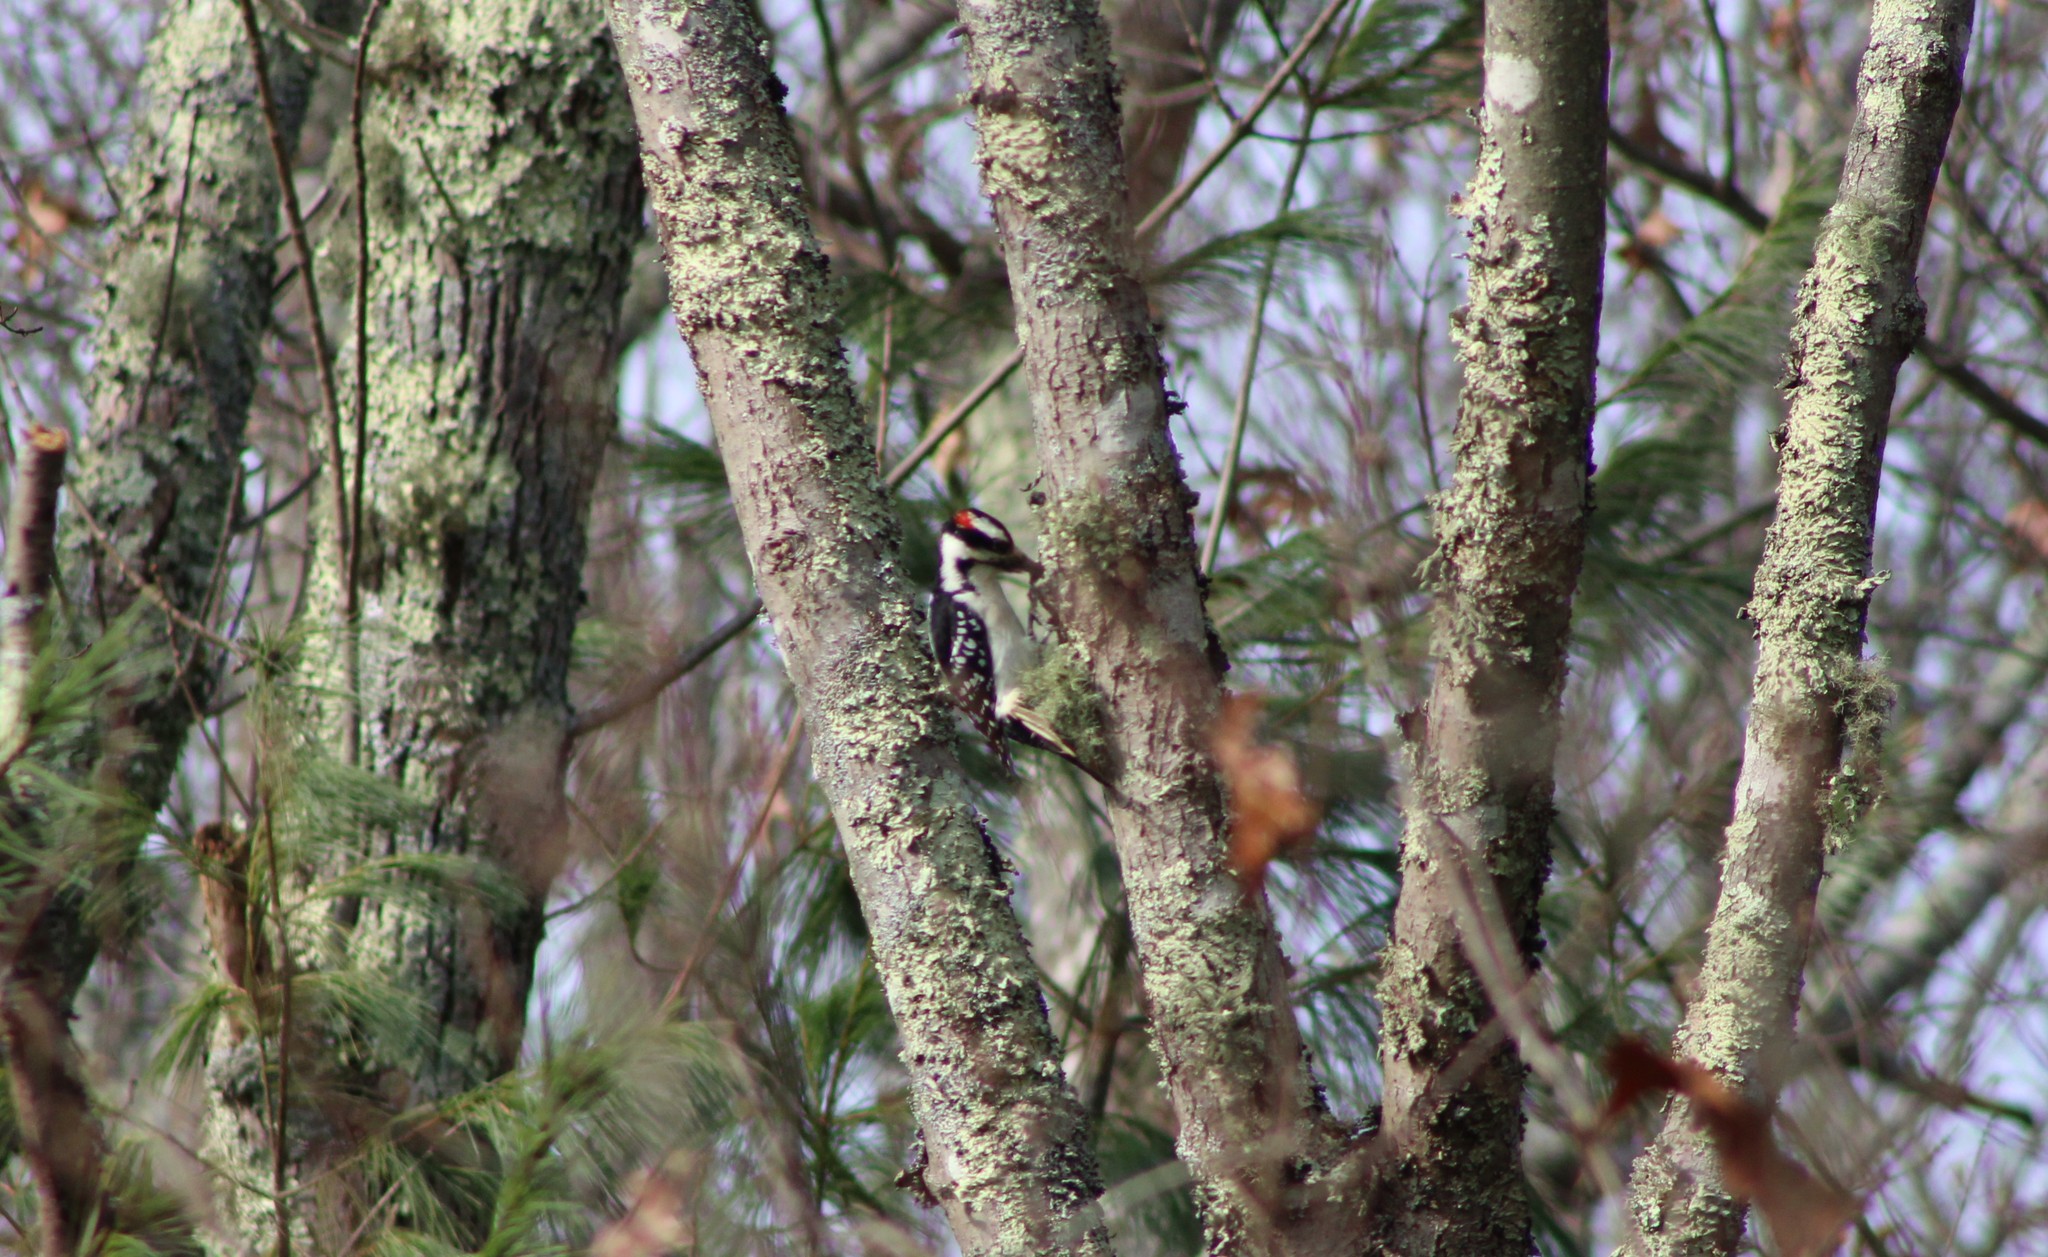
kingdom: Animalia
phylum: Chordata
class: Aves
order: Piciformes
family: Picidae
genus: Leuconotopicus
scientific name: Leuconotopicus villosus
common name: Hairy woodpecker
